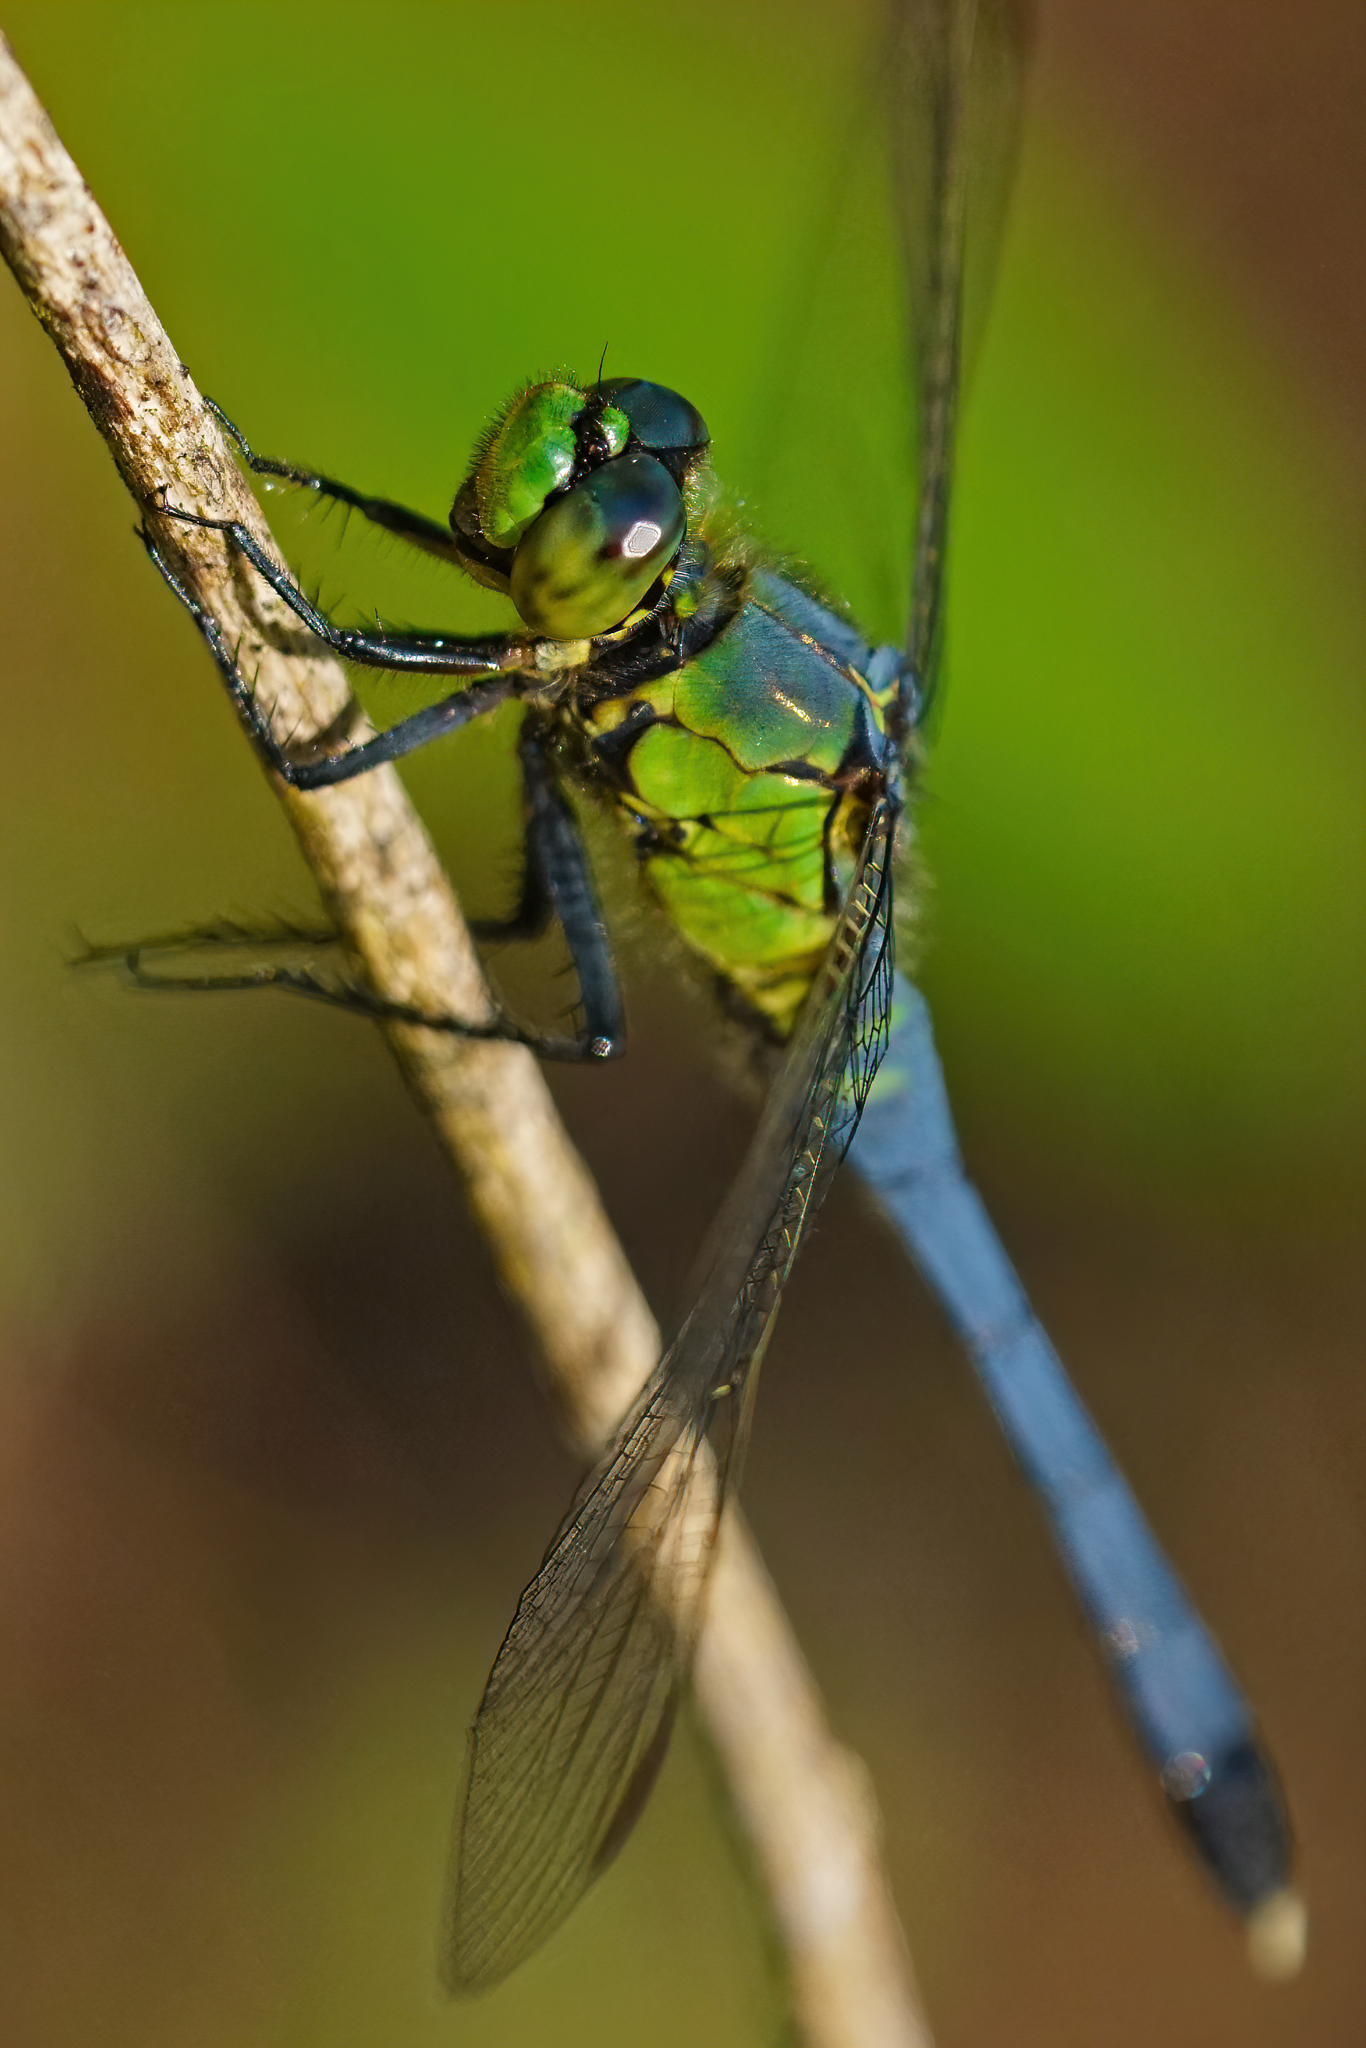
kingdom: Animalia
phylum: Arthropoda
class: Insecta
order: Odonata
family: Libellulidae
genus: Erythemis
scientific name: Erythemis simplicicollis
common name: Eastern pondhawk
